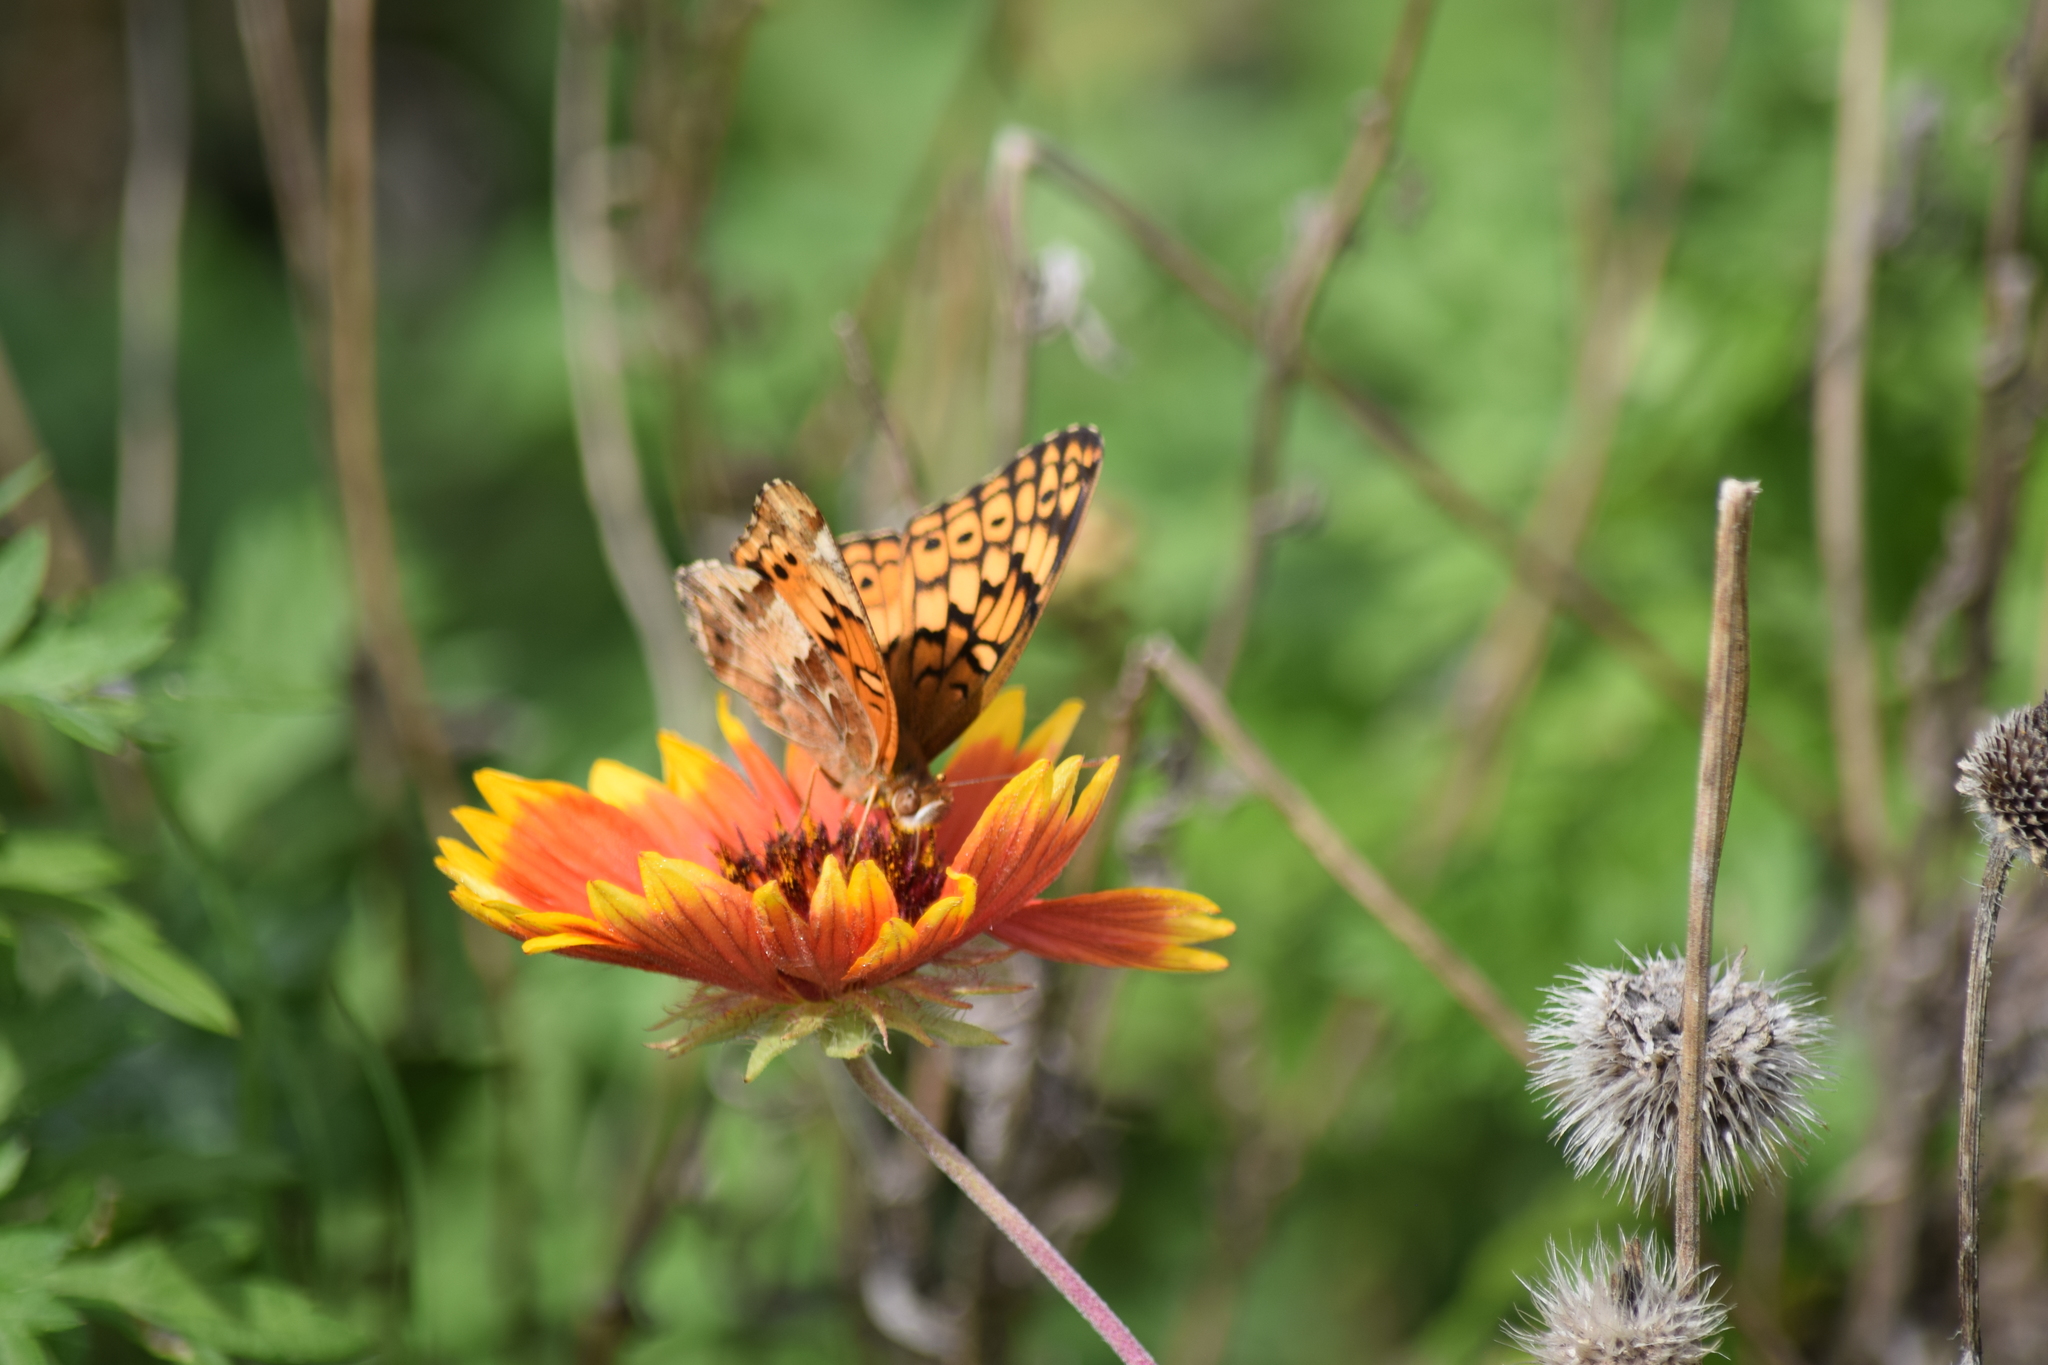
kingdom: Animalia
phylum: Arthropoda
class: Insecta
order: Lepidoptera
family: Nymphalidae
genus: Euptoieta
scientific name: Euptoieta claudia
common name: Variegated fritillary
